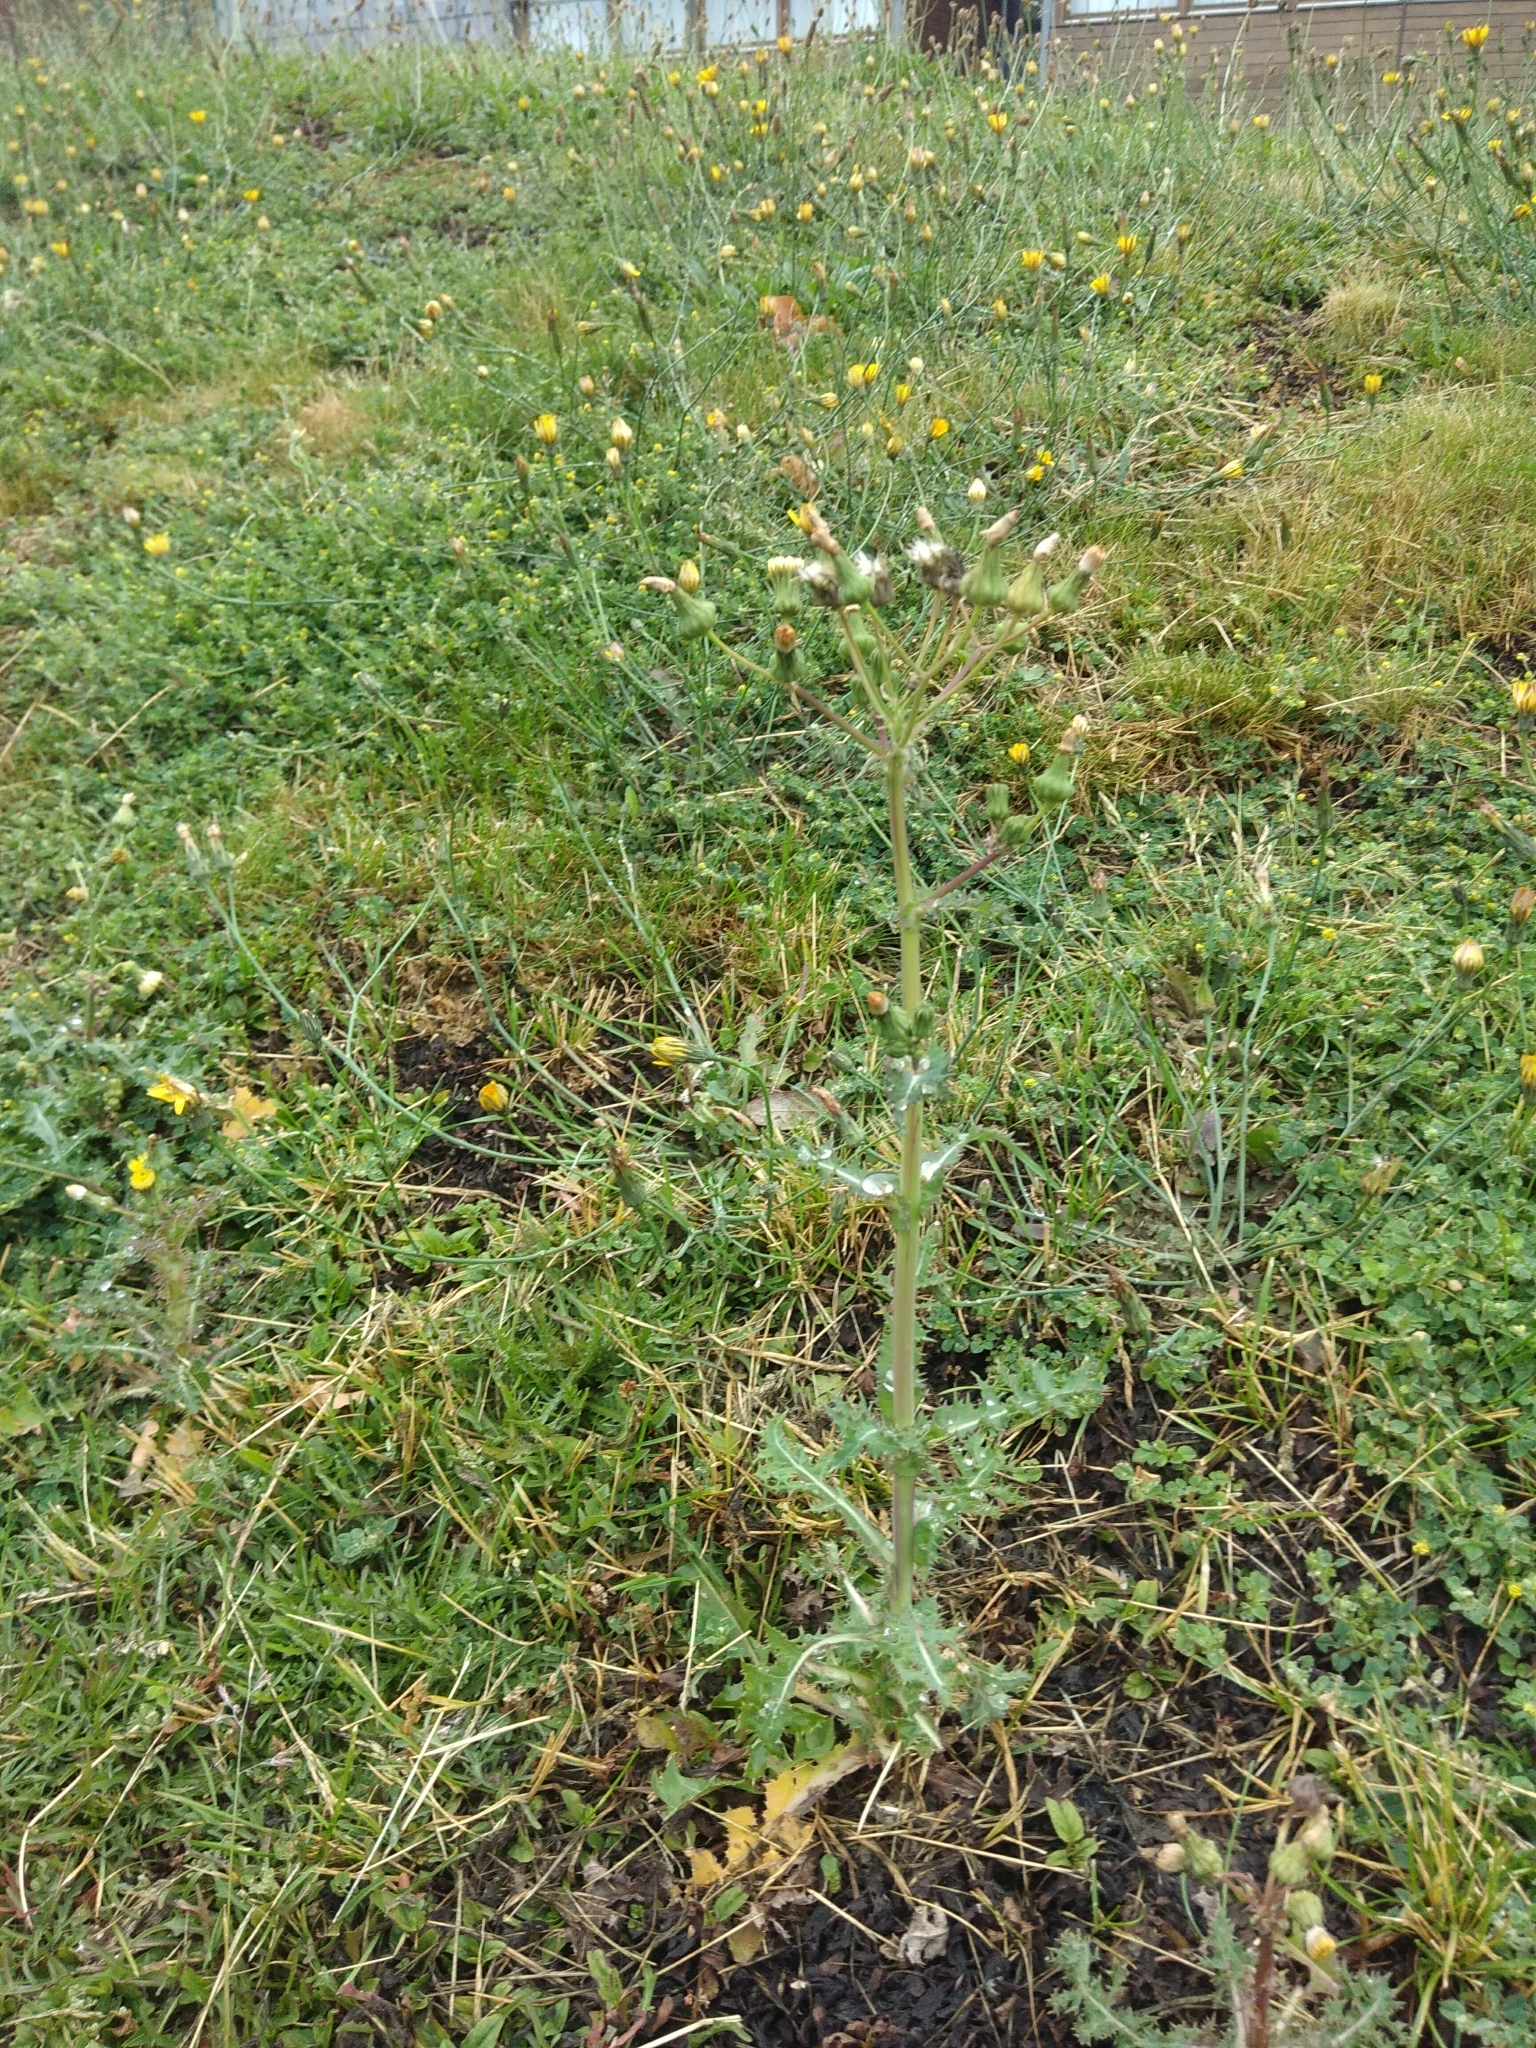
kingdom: Plantae
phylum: Tracheophyta
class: Magnoliopsida
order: Asterales
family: Asteraceae
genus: Sonchus
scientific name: Sonchus asper
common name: Prickly sow-thistle
